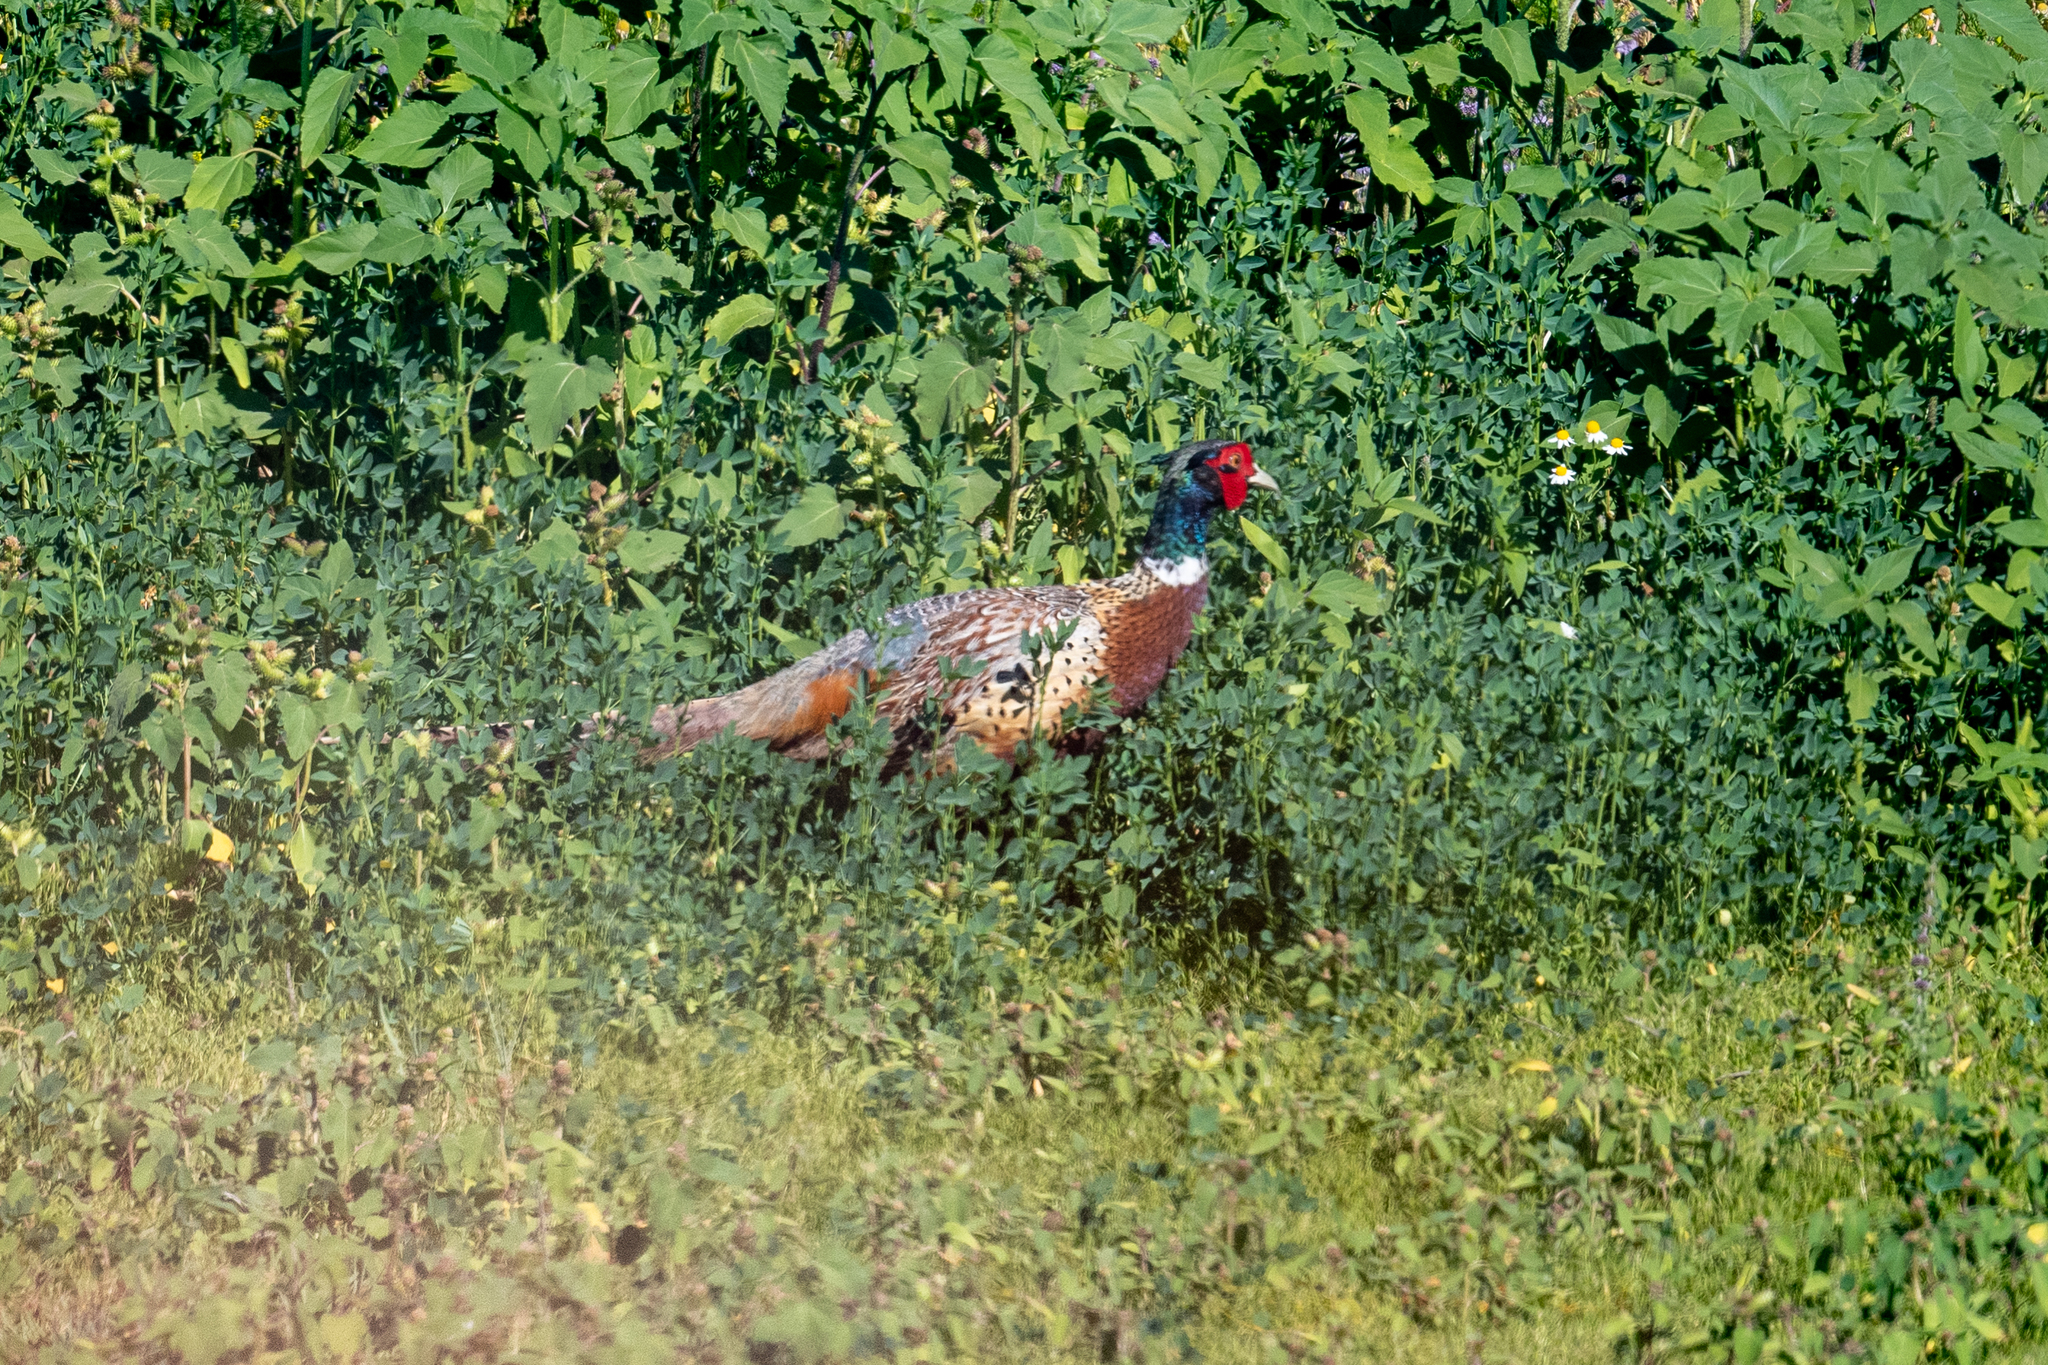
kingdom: Animalia
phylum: Chordata
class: Aves
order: Galliformes
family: Phasianidae
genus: Phasianus
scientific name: Phasianus colchicus
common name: Common pheasant
